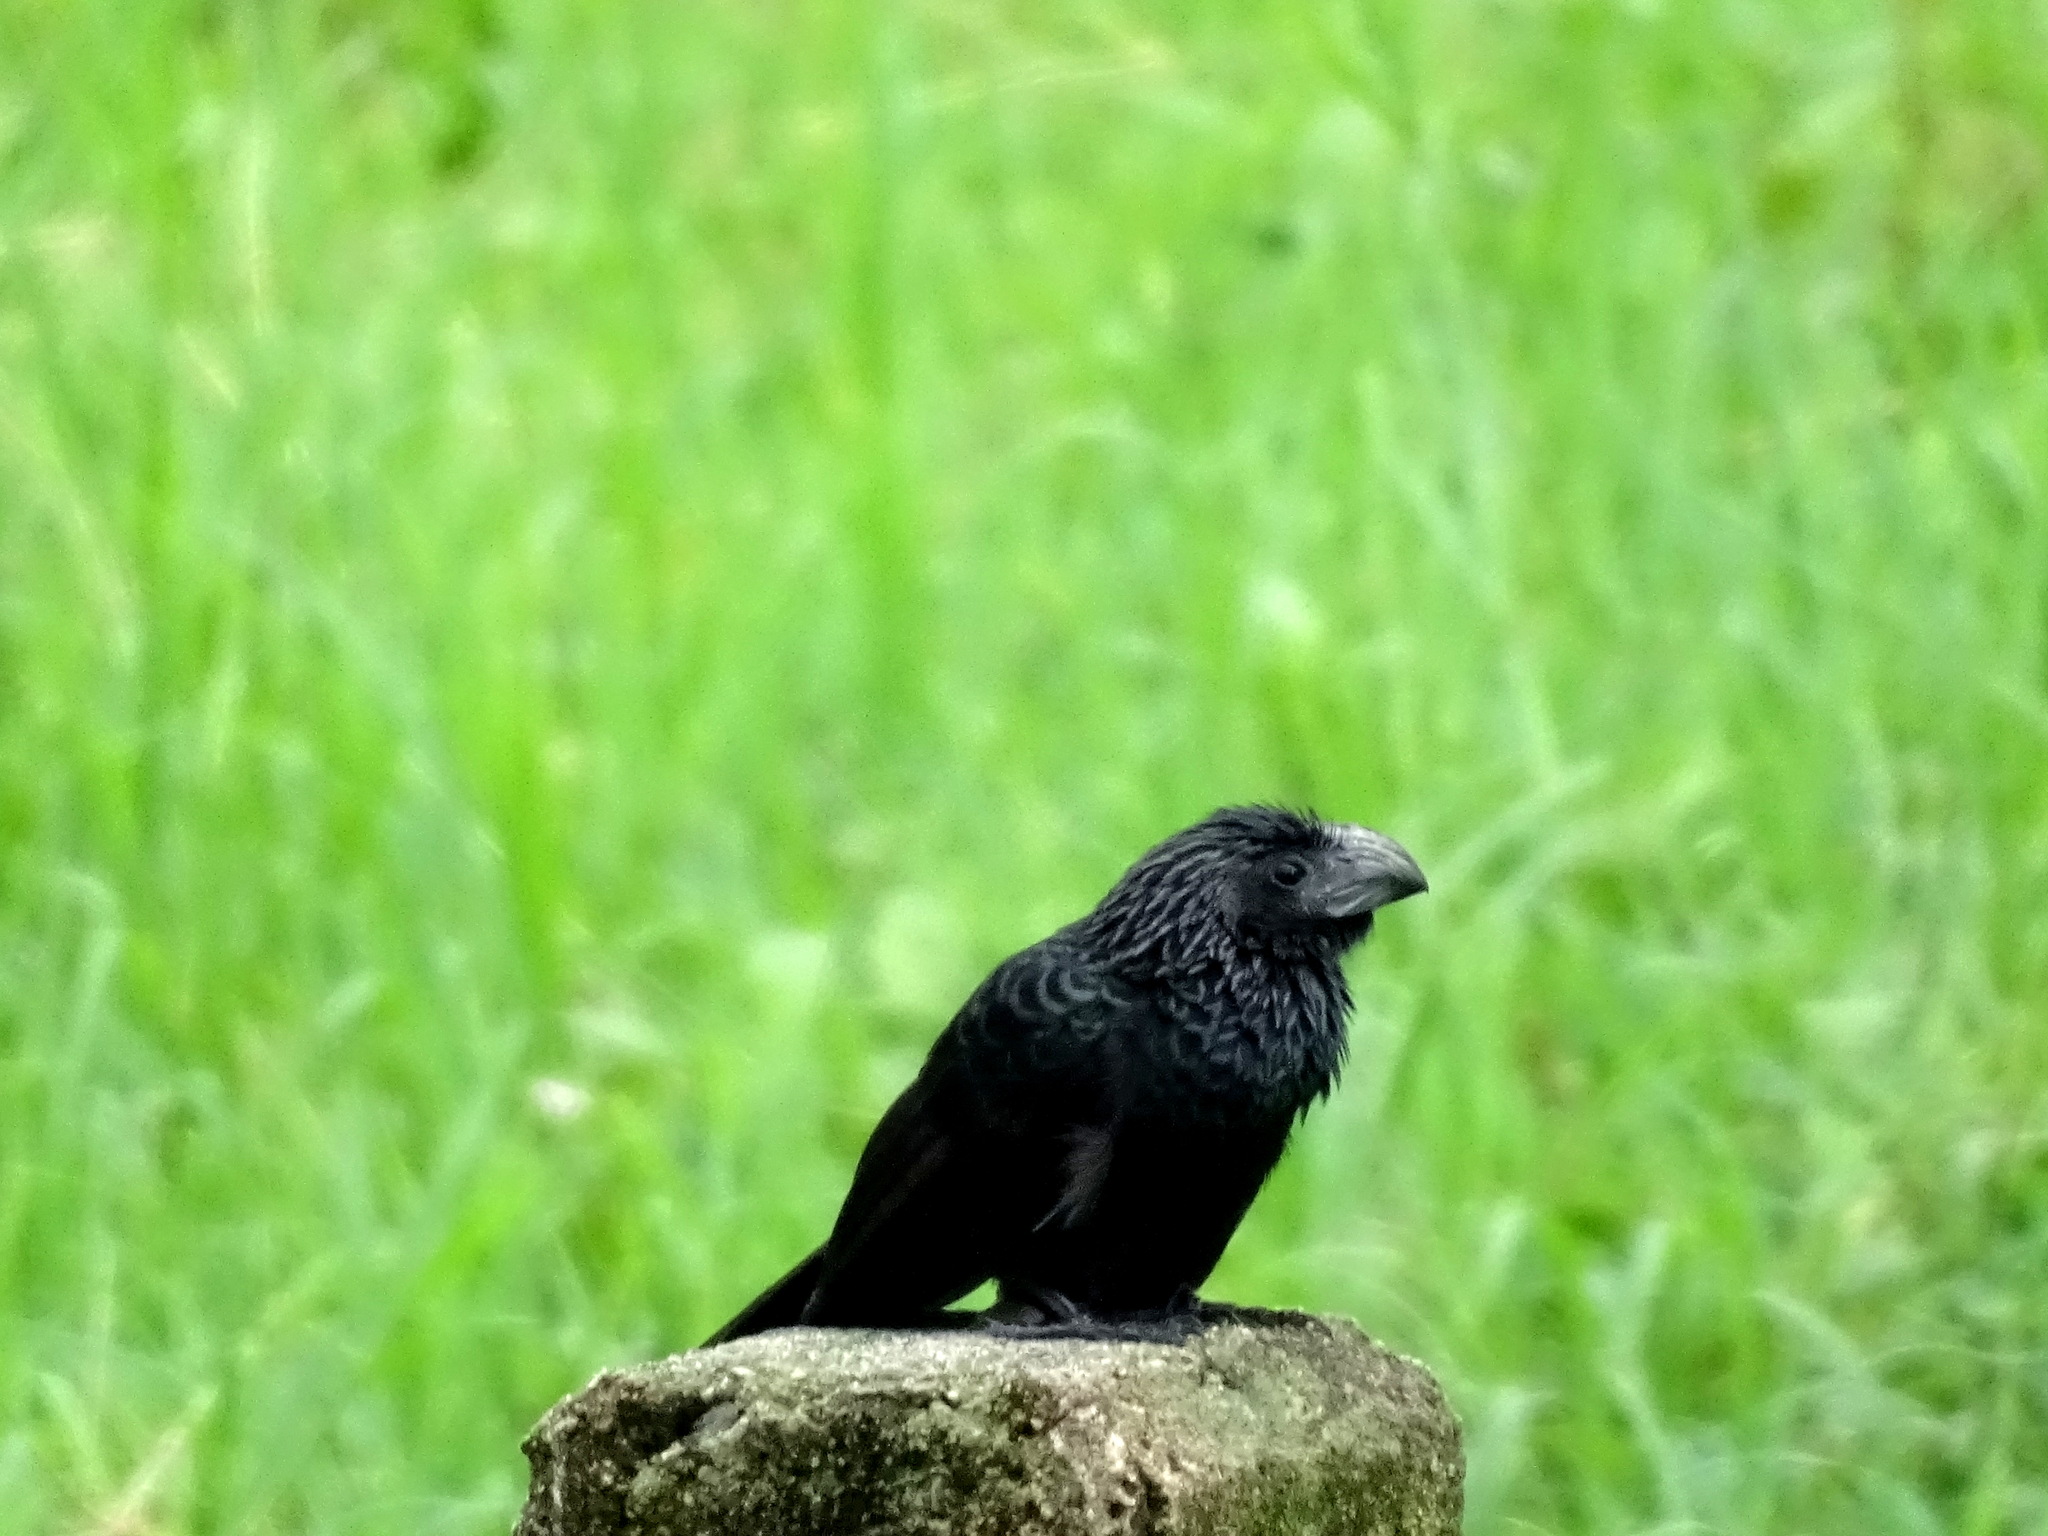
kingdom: Animalia
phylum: Chordata
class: Aves
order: Cuculiformes
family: Cuculidae
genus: Crotophaga
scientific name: Crotophaga sulcirostris
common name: Groove-billed ani
